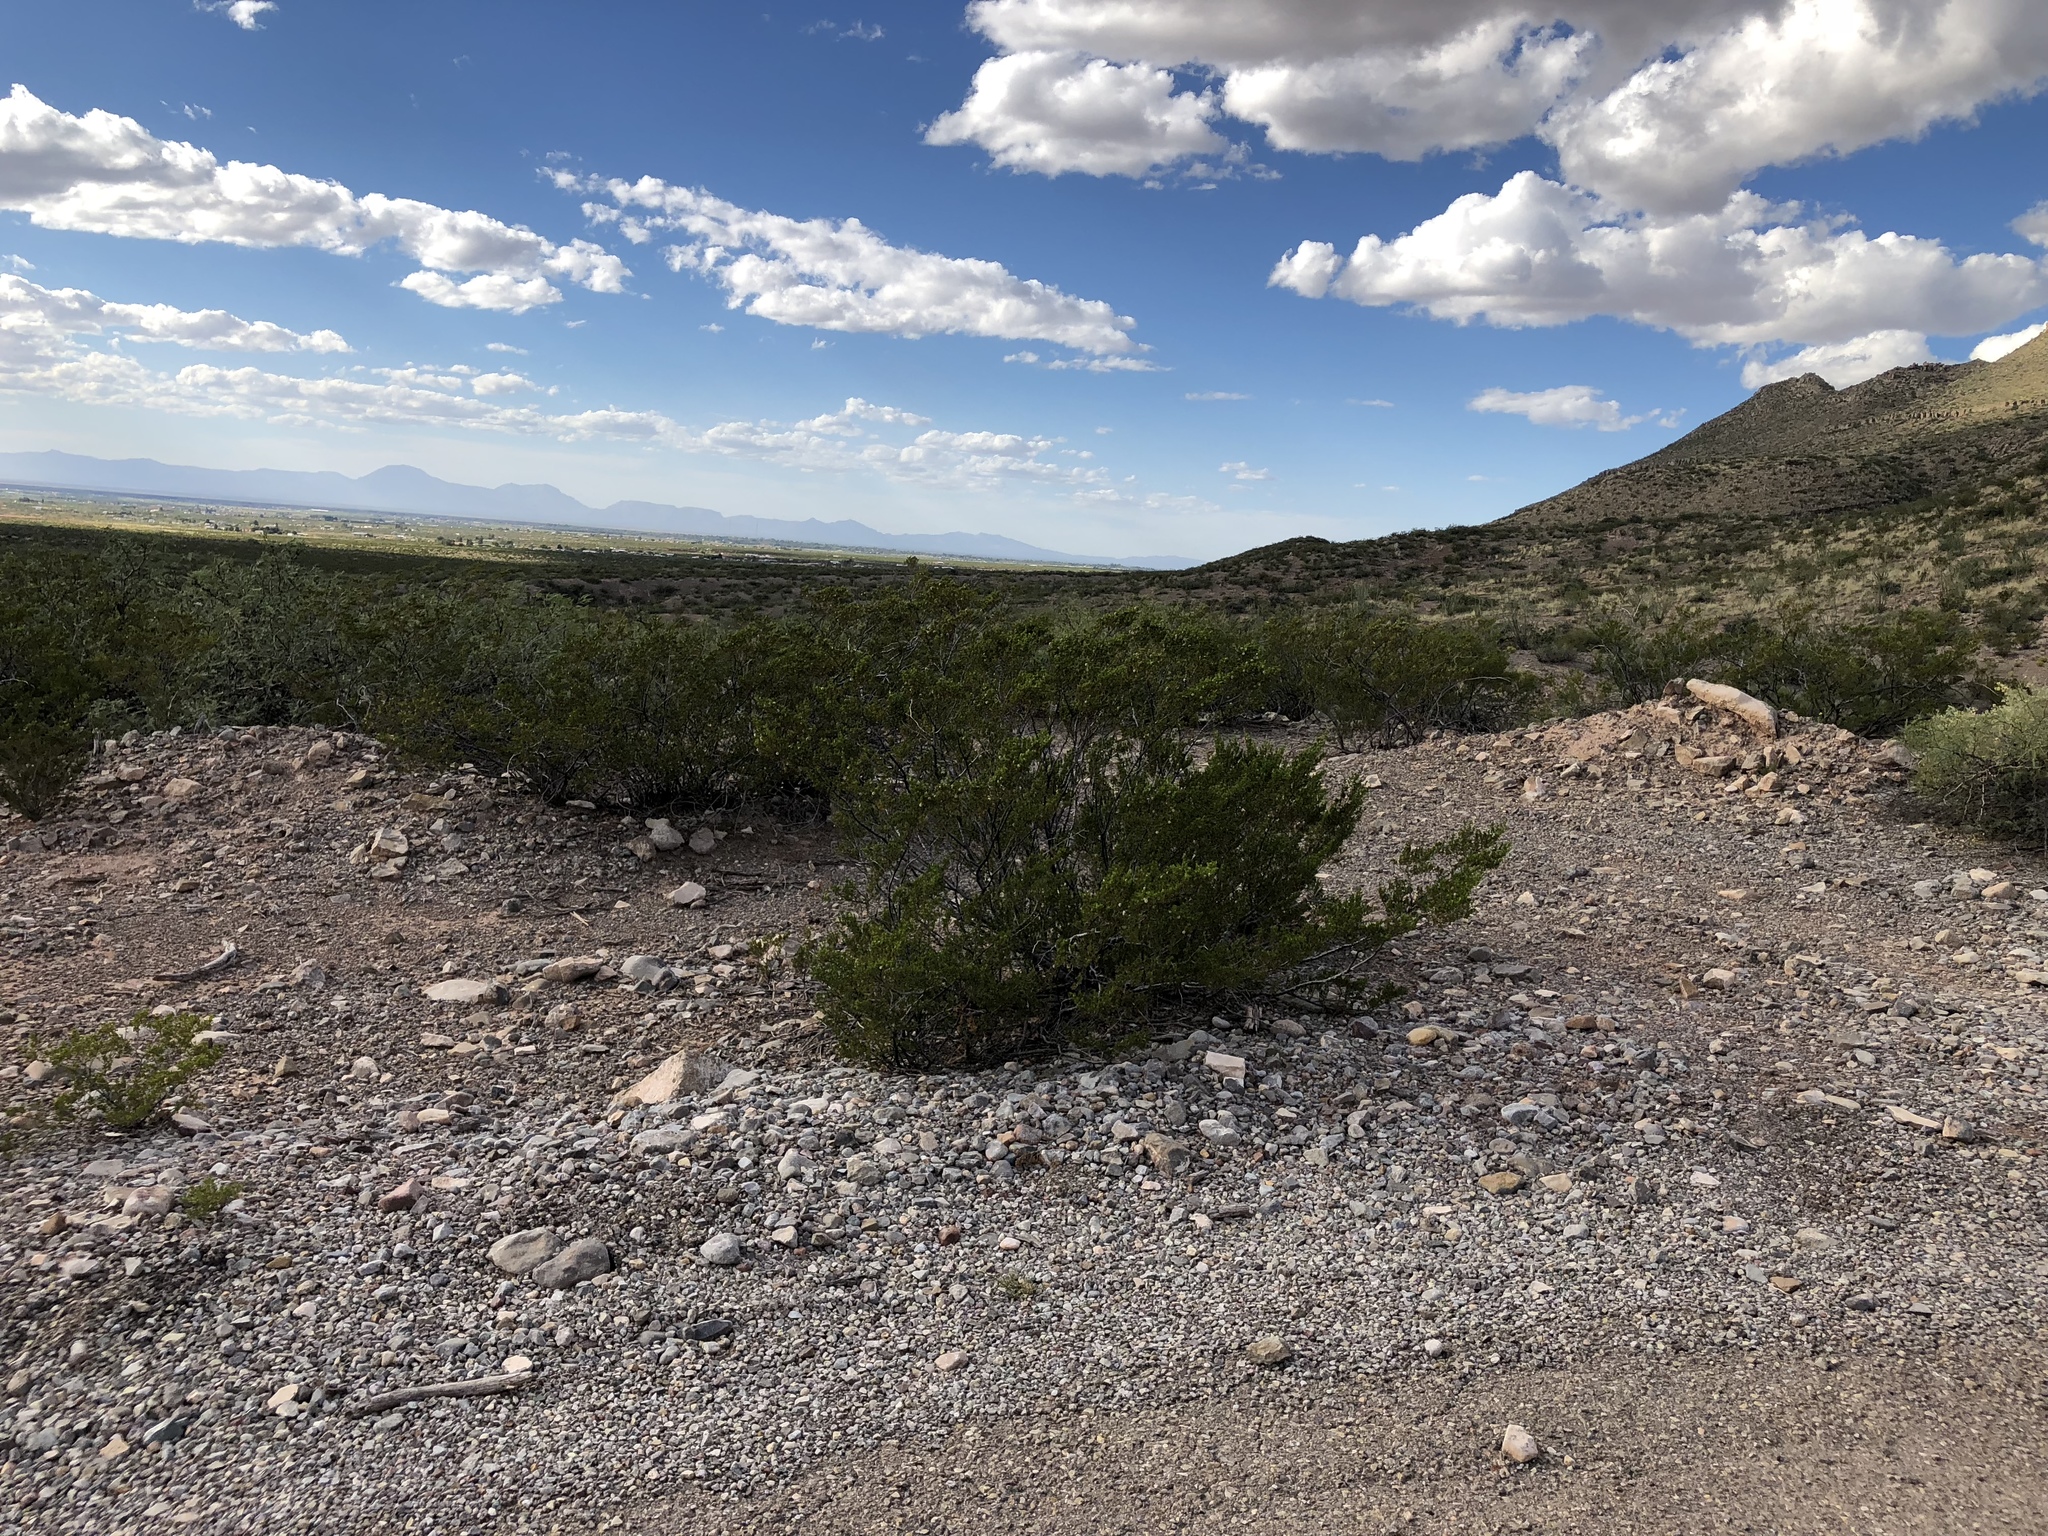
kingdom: Plantae
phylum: Tracheophyta
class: Magnoliopsida
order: Zygophyllales
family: Zygophyllaceae
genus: Larrea
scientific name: Larrea tridentata
